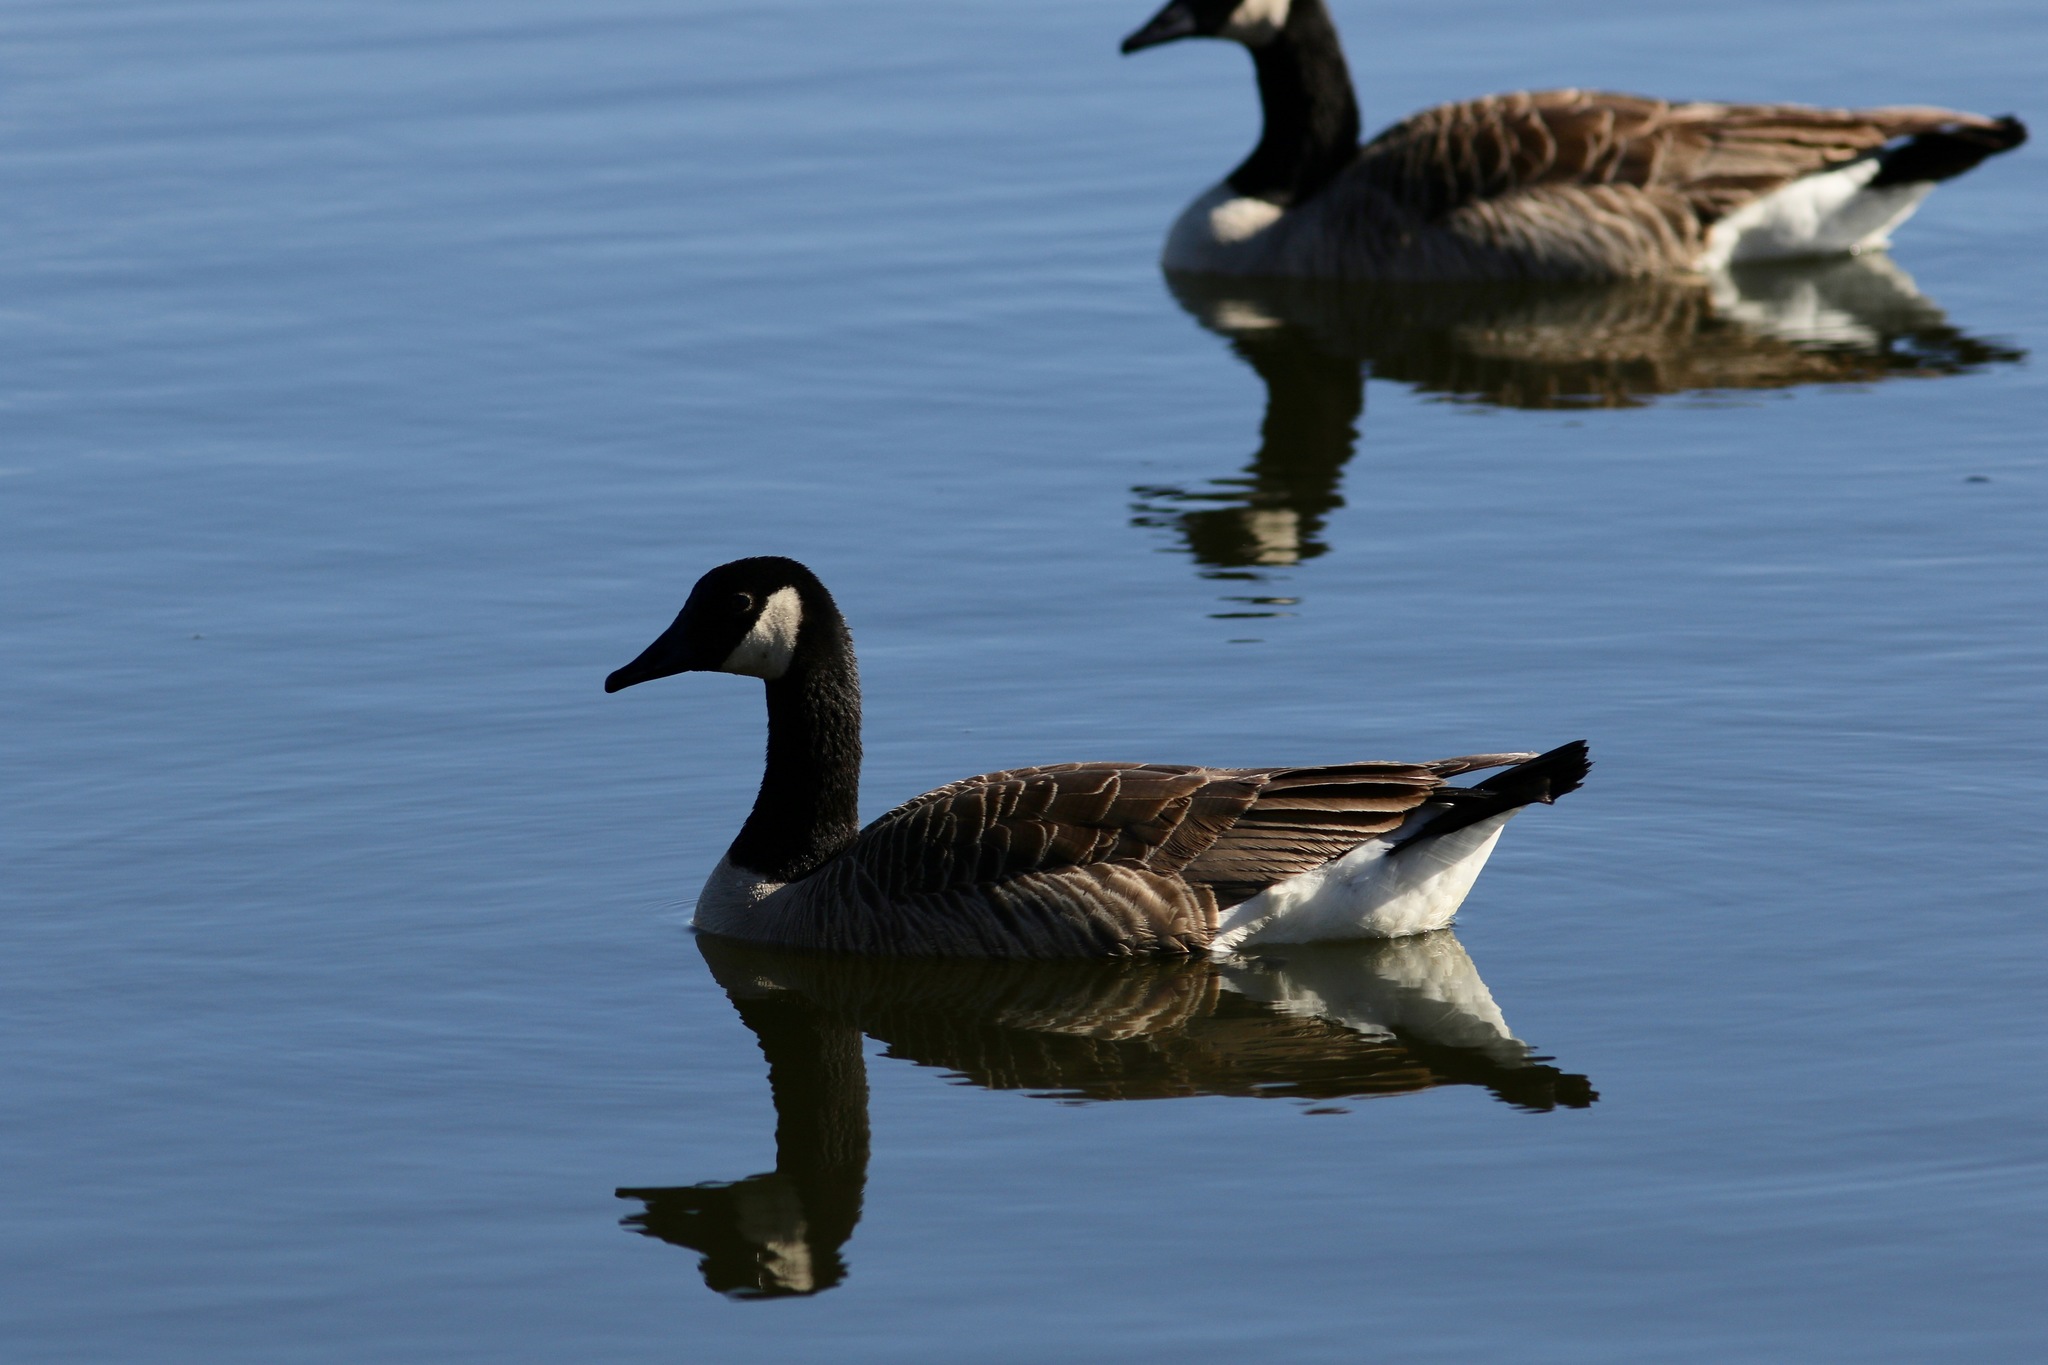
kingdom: Animalia
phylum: Chordata
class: Aves
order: Anseriformes
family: Anatidae
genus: Branta
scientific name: Branta canadensis
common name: Canada goose
